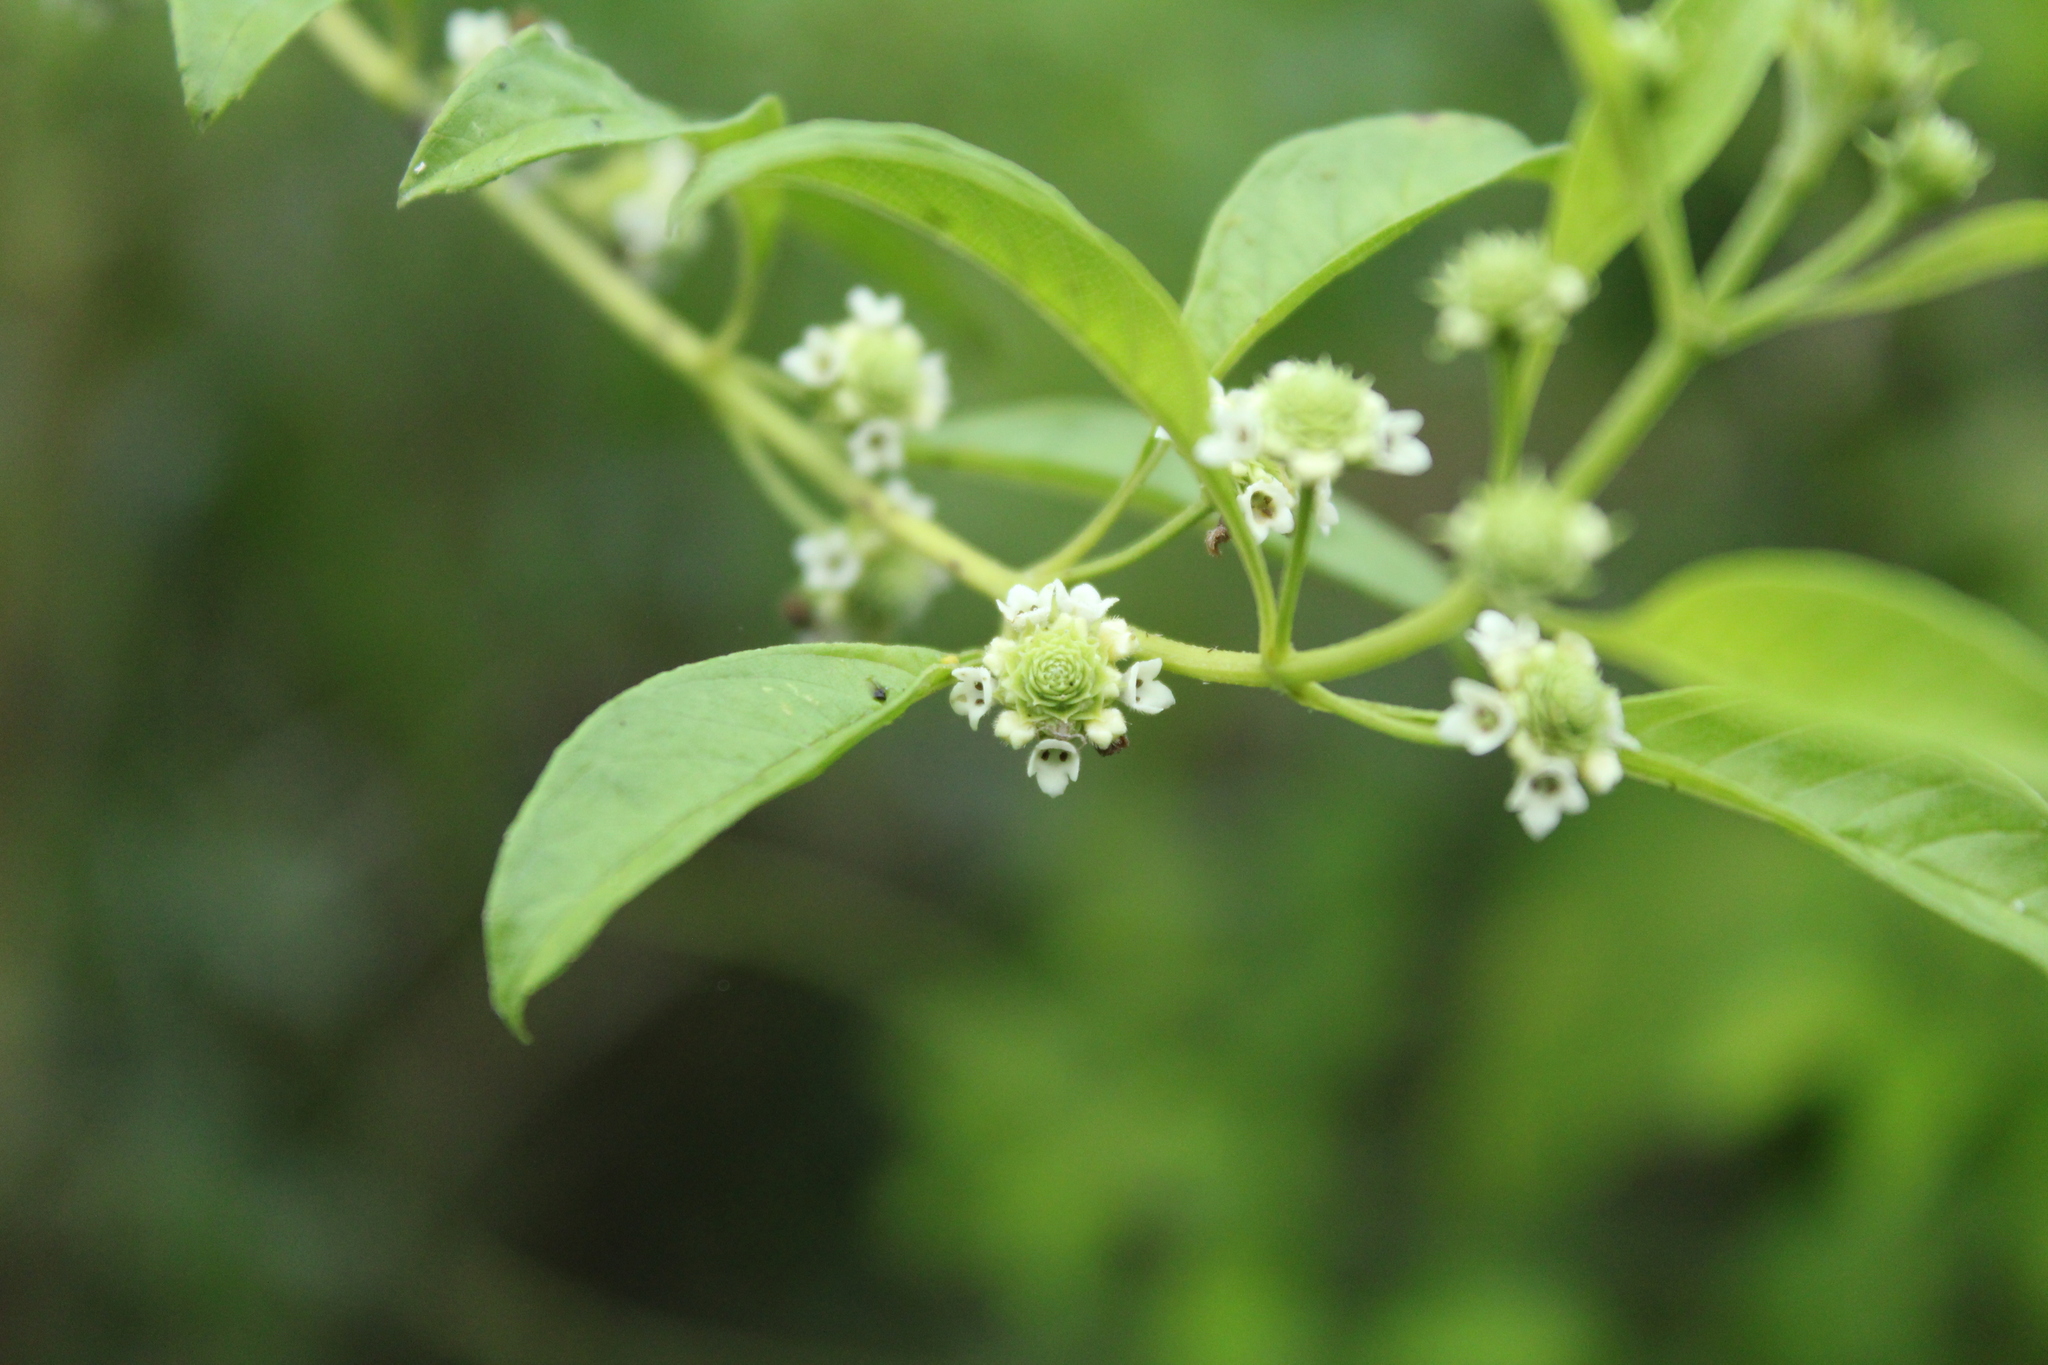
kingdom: Plantae
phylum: Tracheophyta
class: Magnoliopsida
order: Lamiales
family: Verbenaceae
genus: Lippia
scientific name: Lippia dulcis
